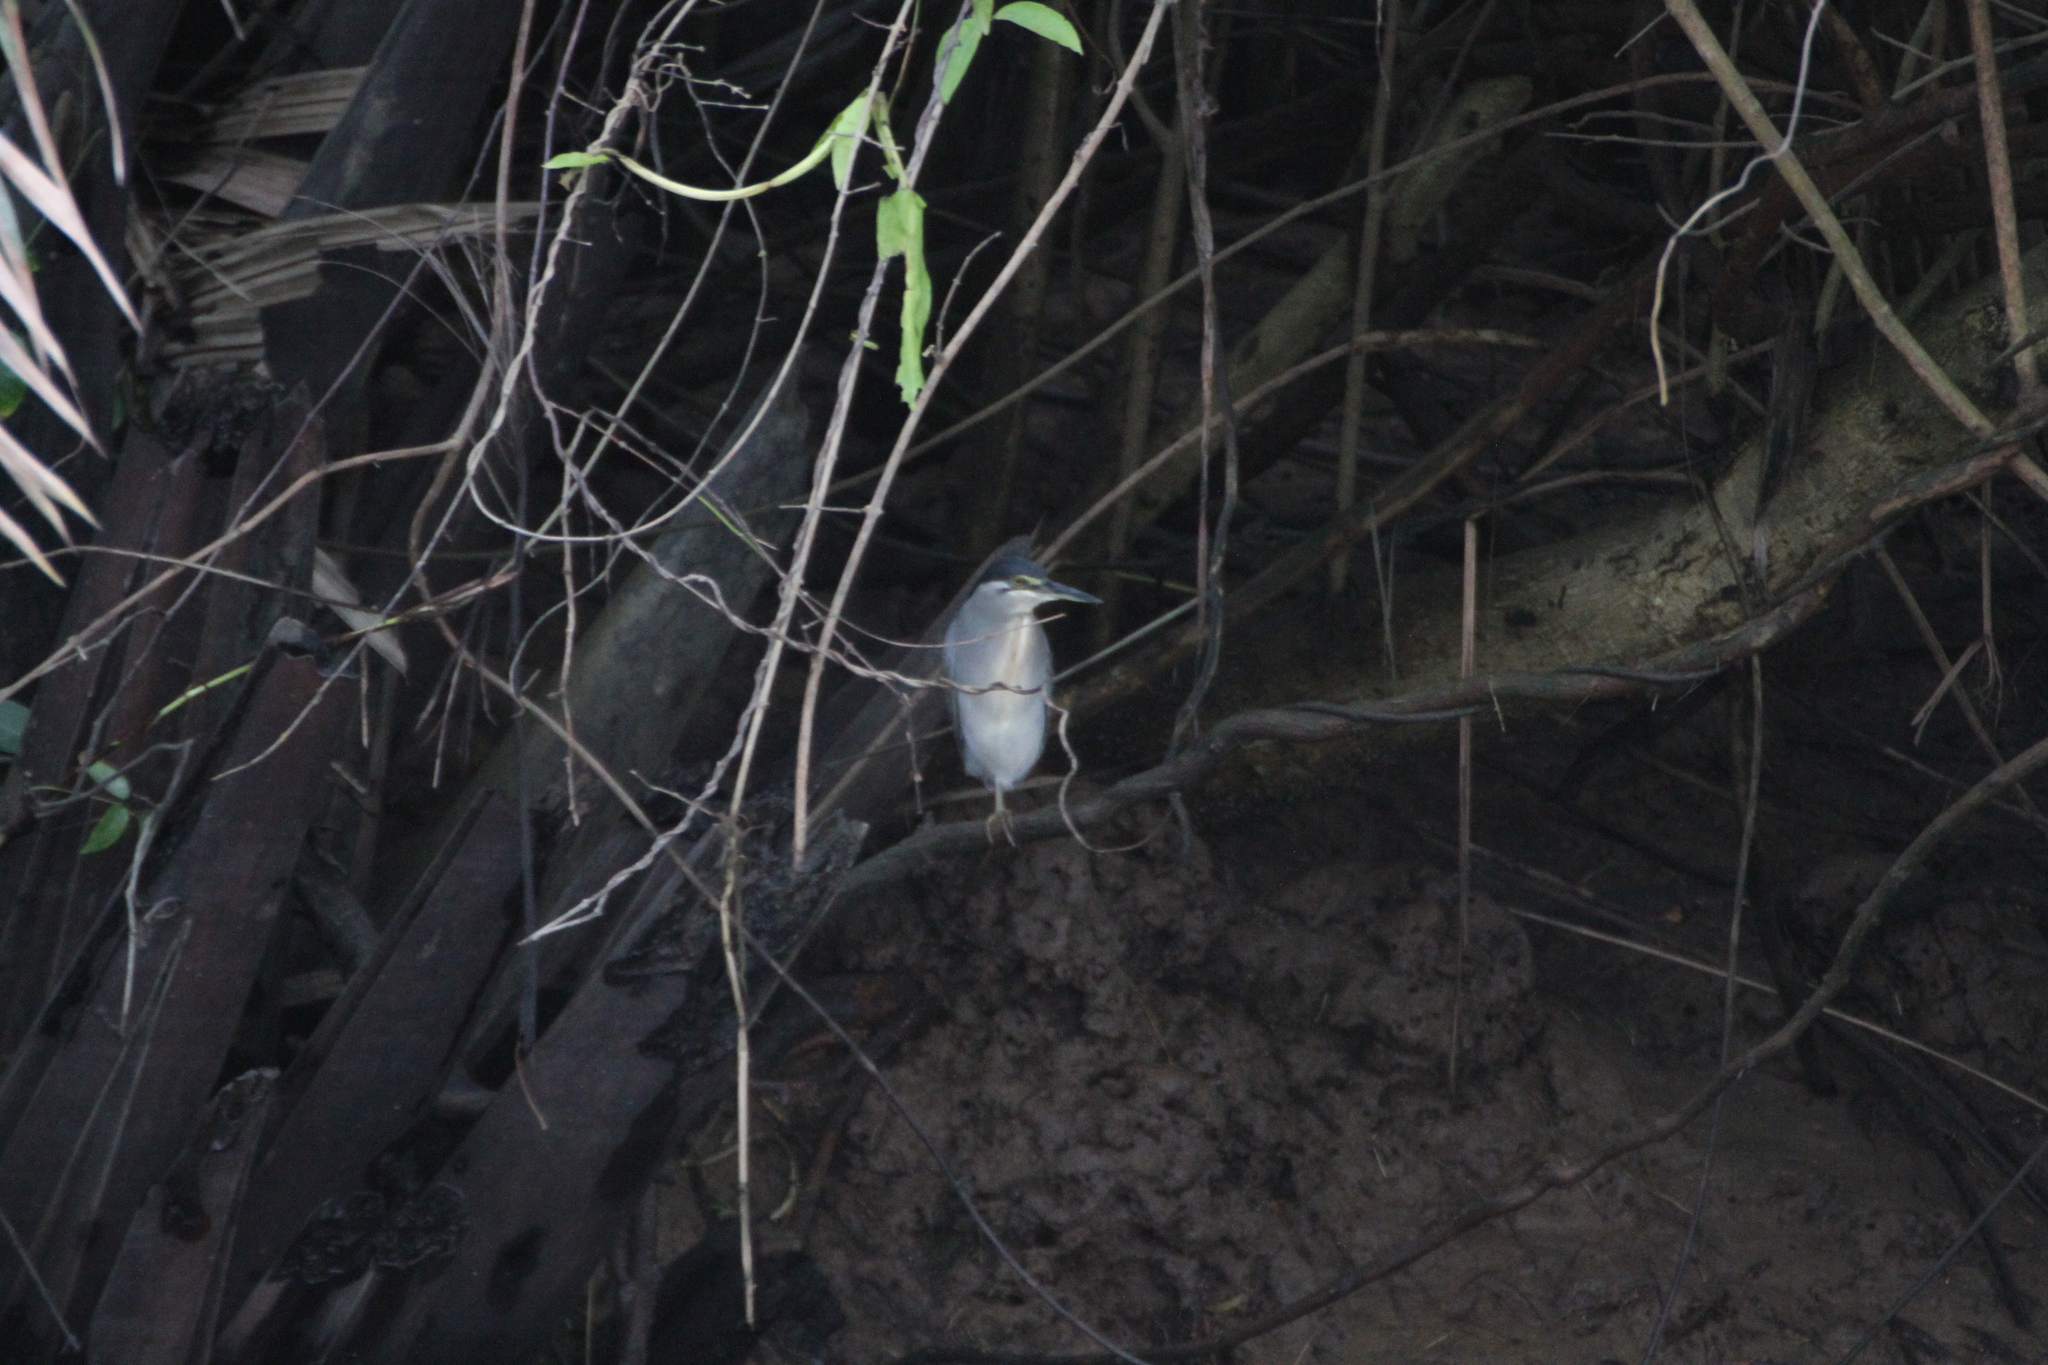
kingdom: Animalia
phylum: Chordata
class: Aves
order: Pelecaniformes
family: Ardeidae
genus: Butorides
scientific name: Butorides striata
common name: Striated heron
